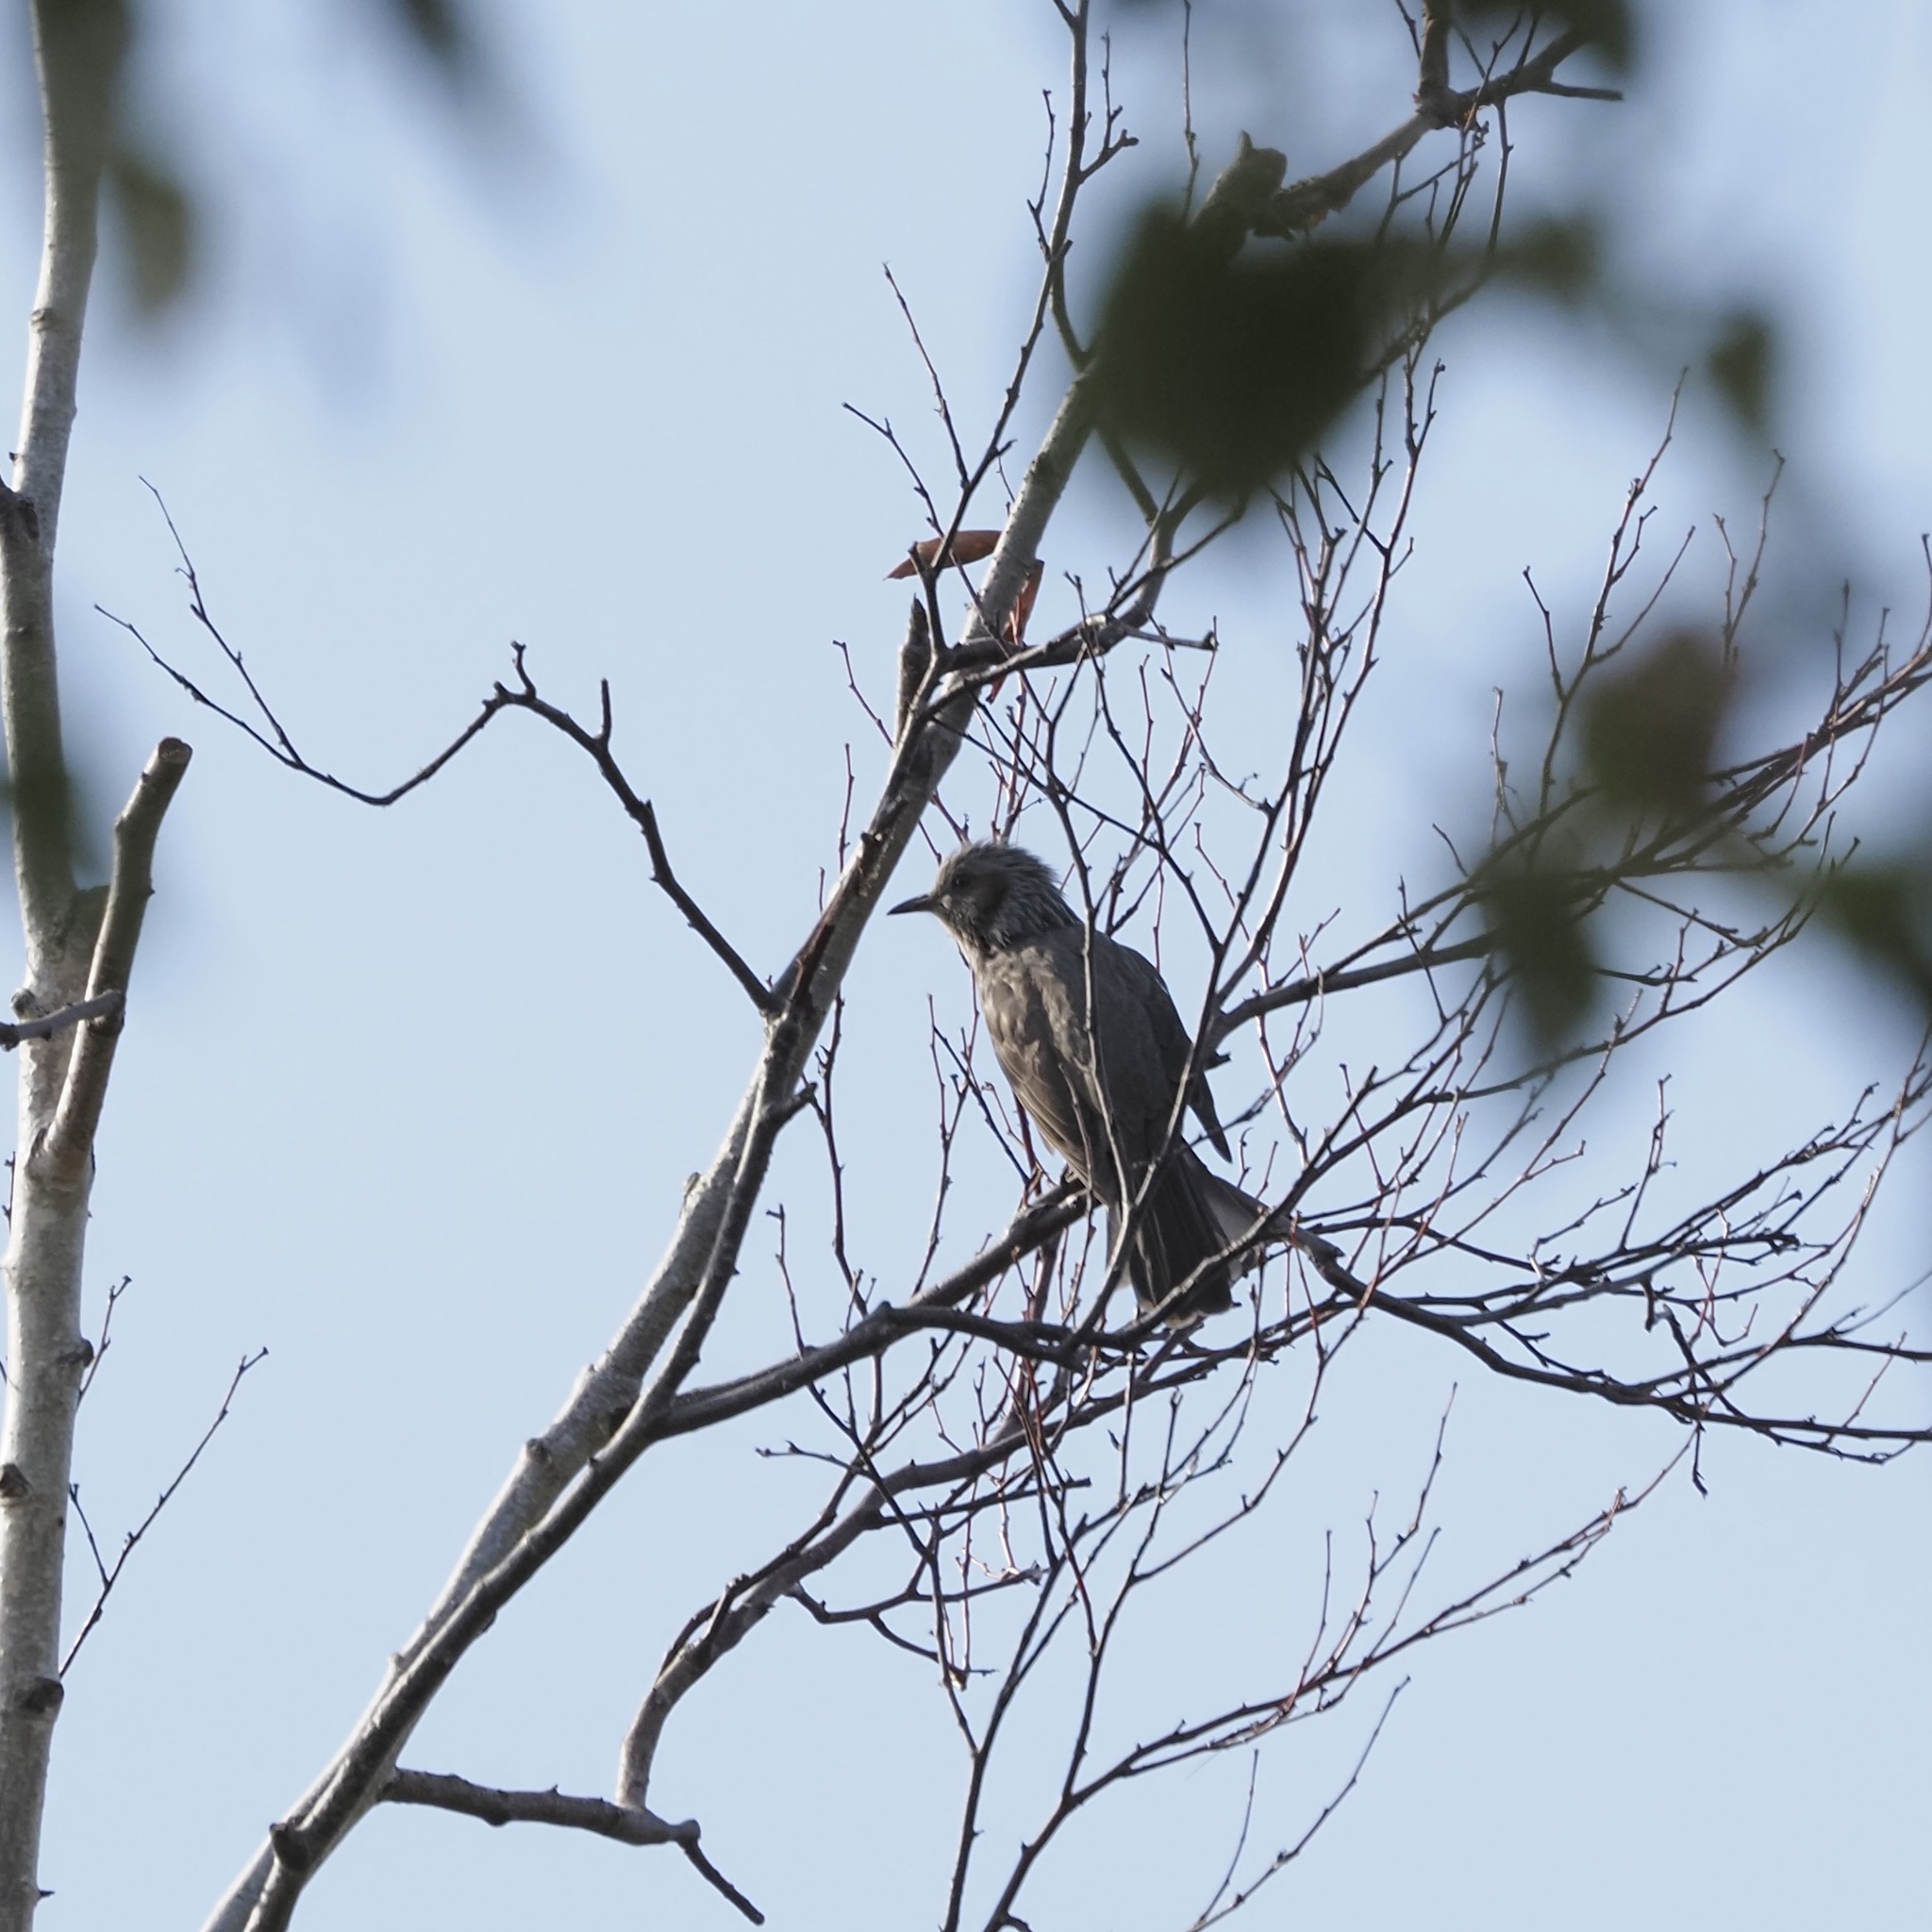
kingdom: Animalia
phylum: Chordata
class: Aves
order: Passeriformes
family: Pycnonotidae
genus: Hypsipetes
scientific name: Hypsipetes amaurotis
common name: Brown-eared bulbul
